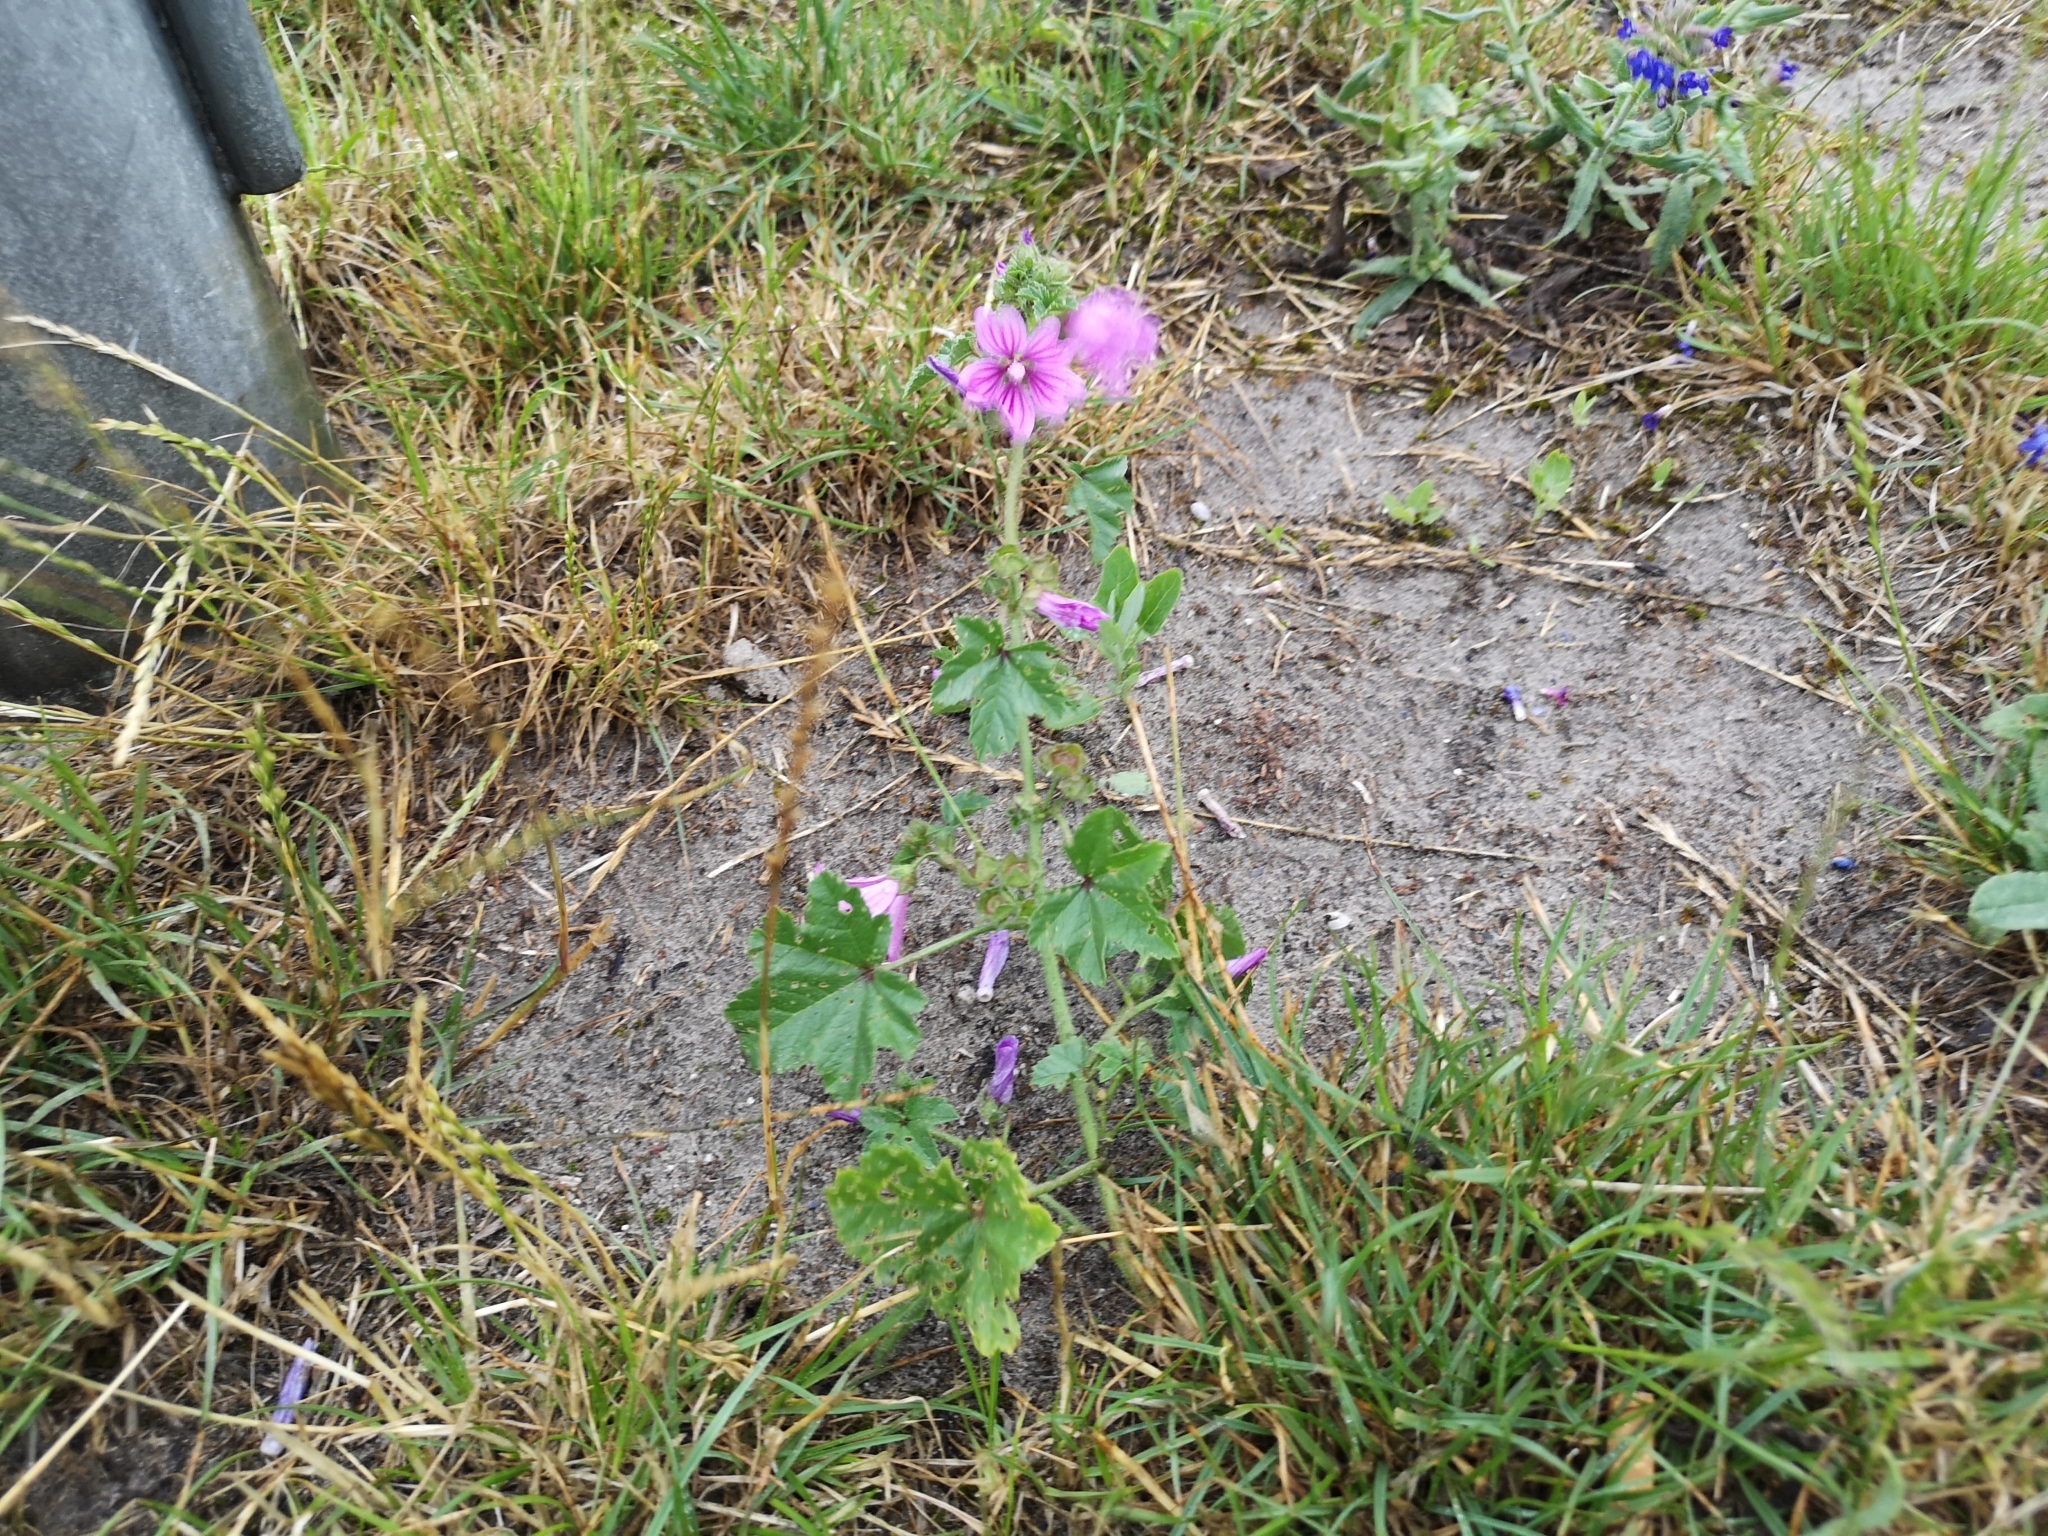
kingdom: Plantae
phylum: Tracheophyta
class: Magnoliopsida
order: Malvales
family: Malvaceae
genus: Malva
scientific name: Malva sylvestris
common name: Common mallow
